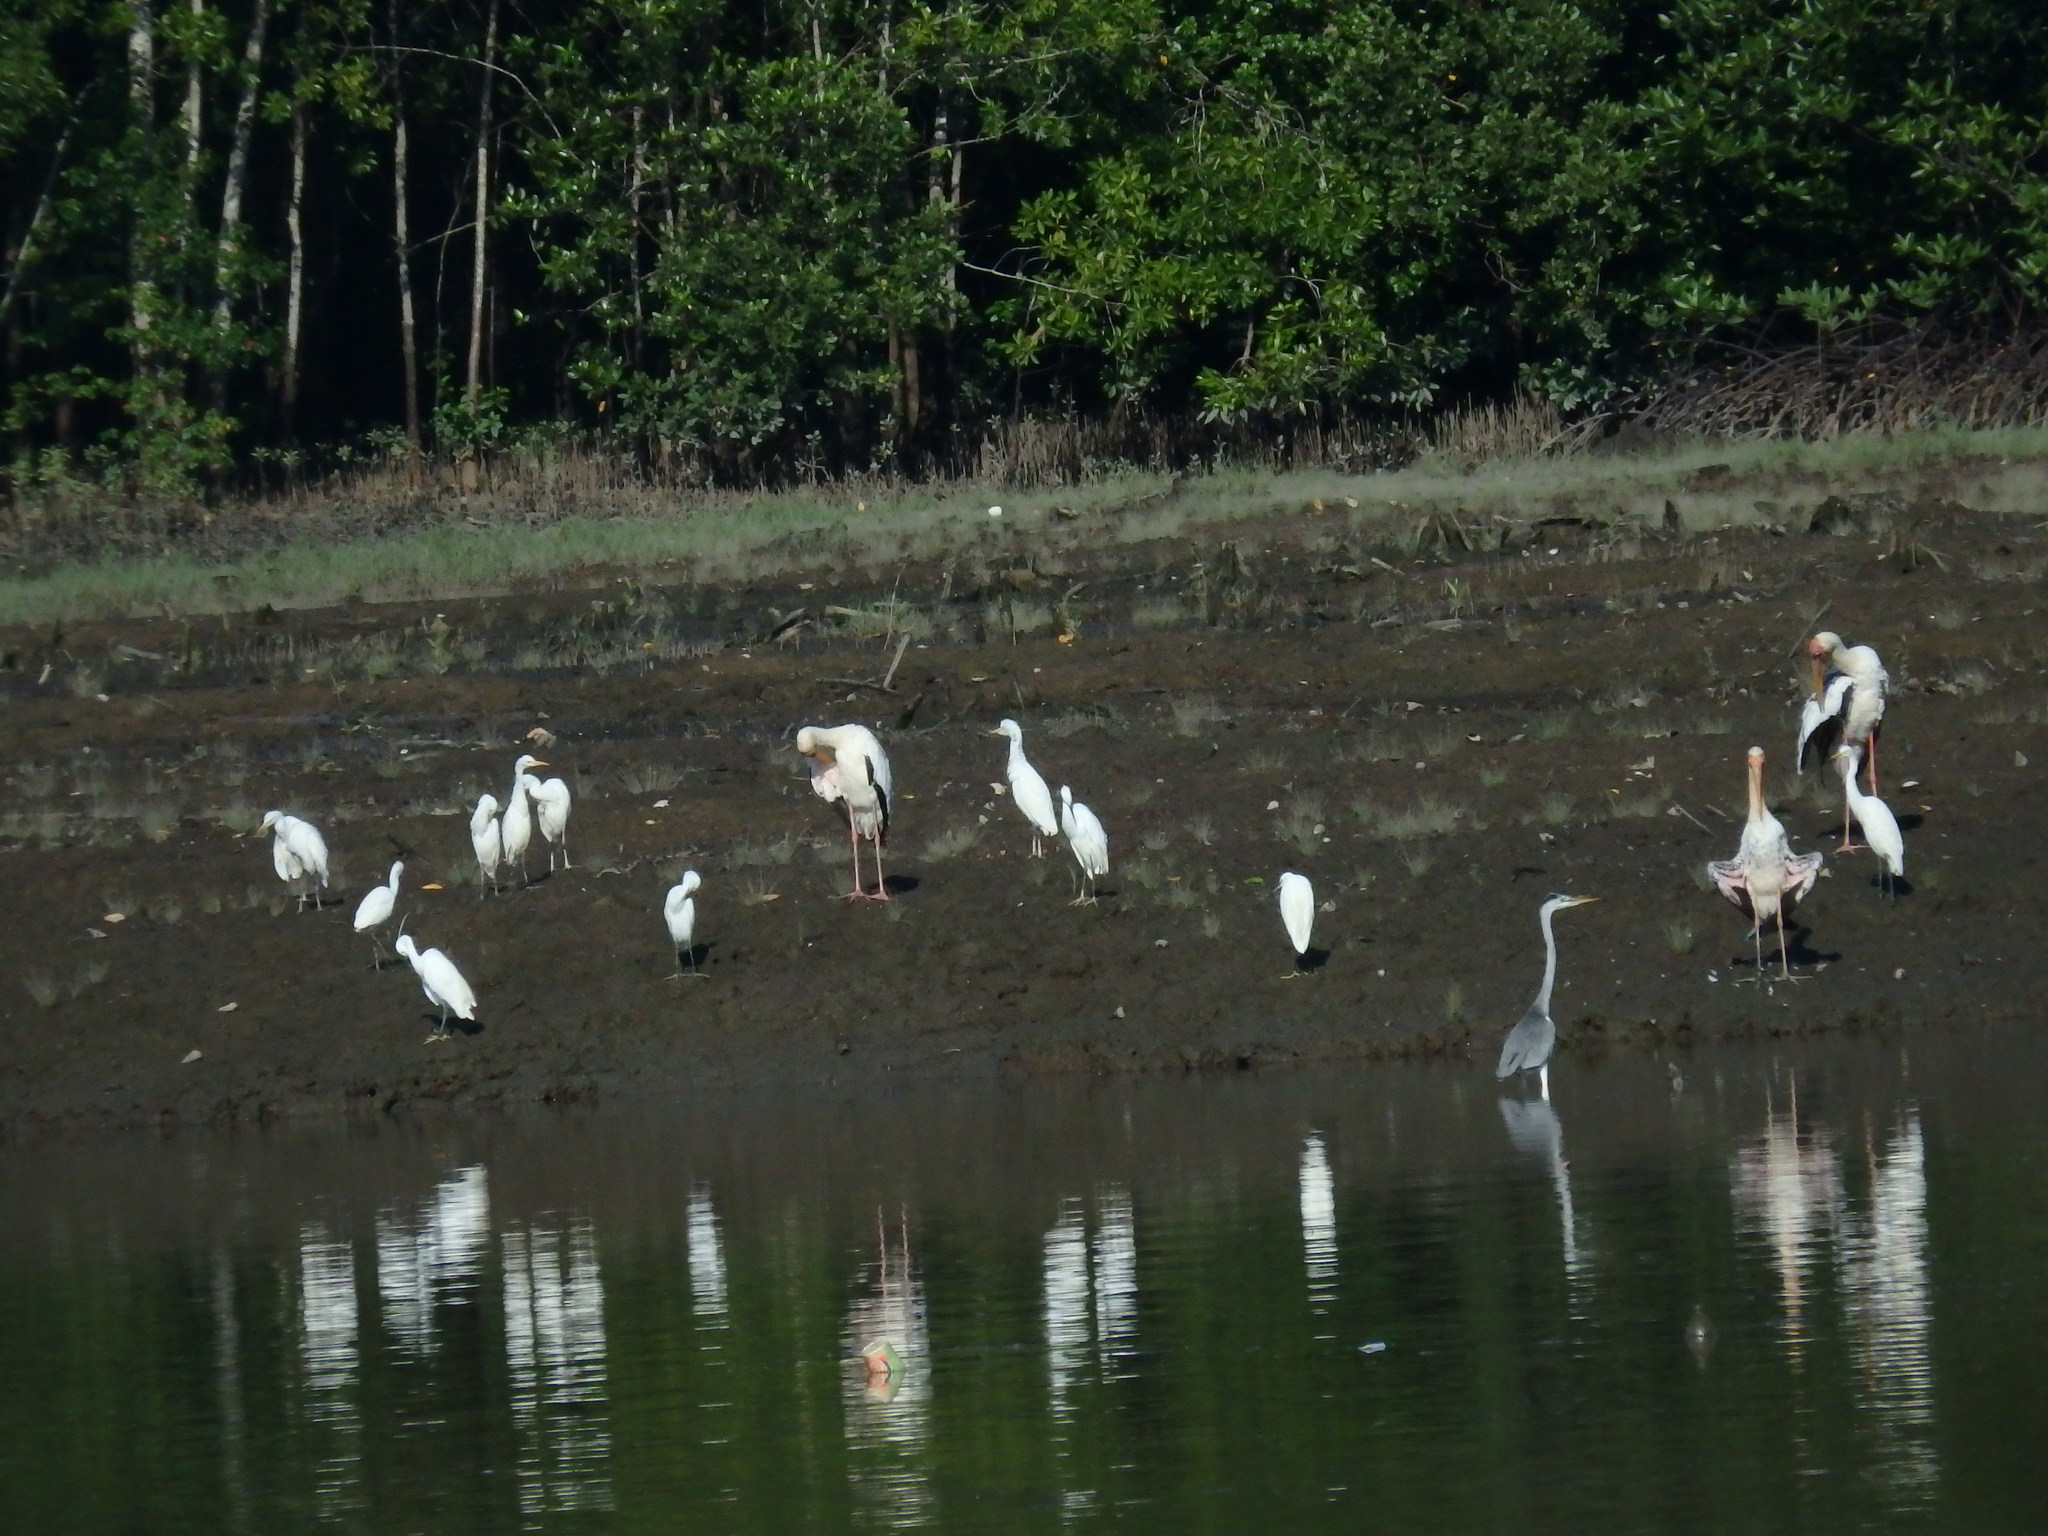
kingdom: Animalia
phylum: Chordata
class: Aves
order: Pelecaniformes
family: Ardeidae
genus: Bubulcus
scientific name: Bubulcus coromandus
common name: Eastern cattle egret
